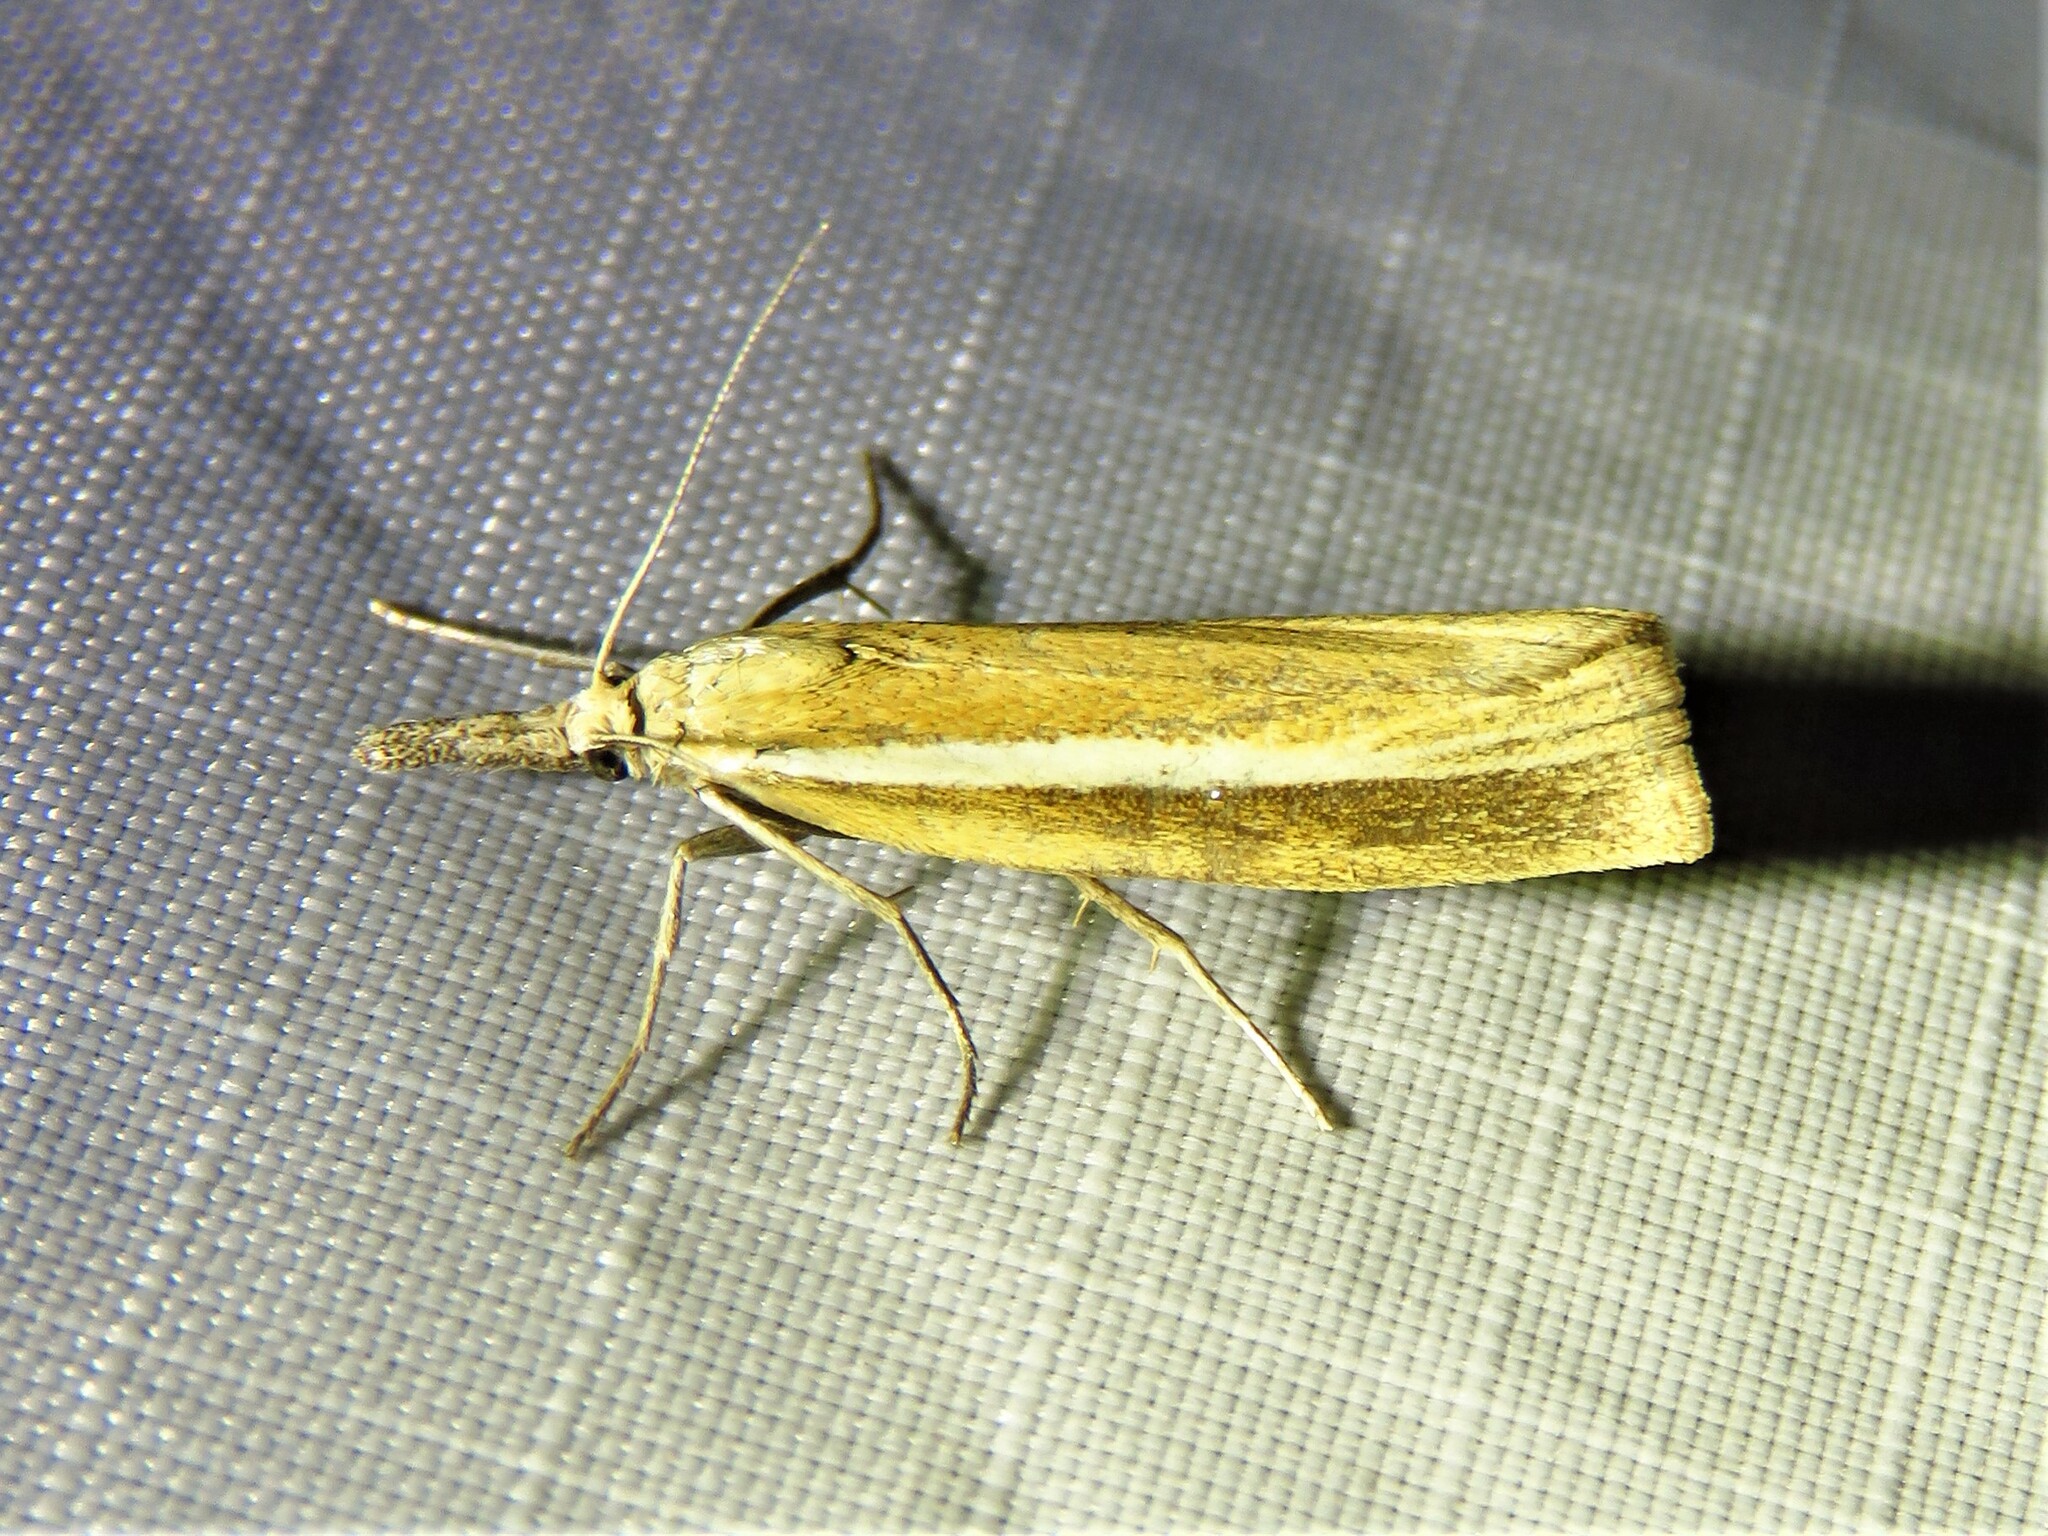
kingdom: Animalia
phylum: Arthropoda
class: Insecta
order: Lepidoptera
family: Crambidae
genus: Agriphila
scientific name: Agriphila selasella
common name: Pale-streak grass-veneer
